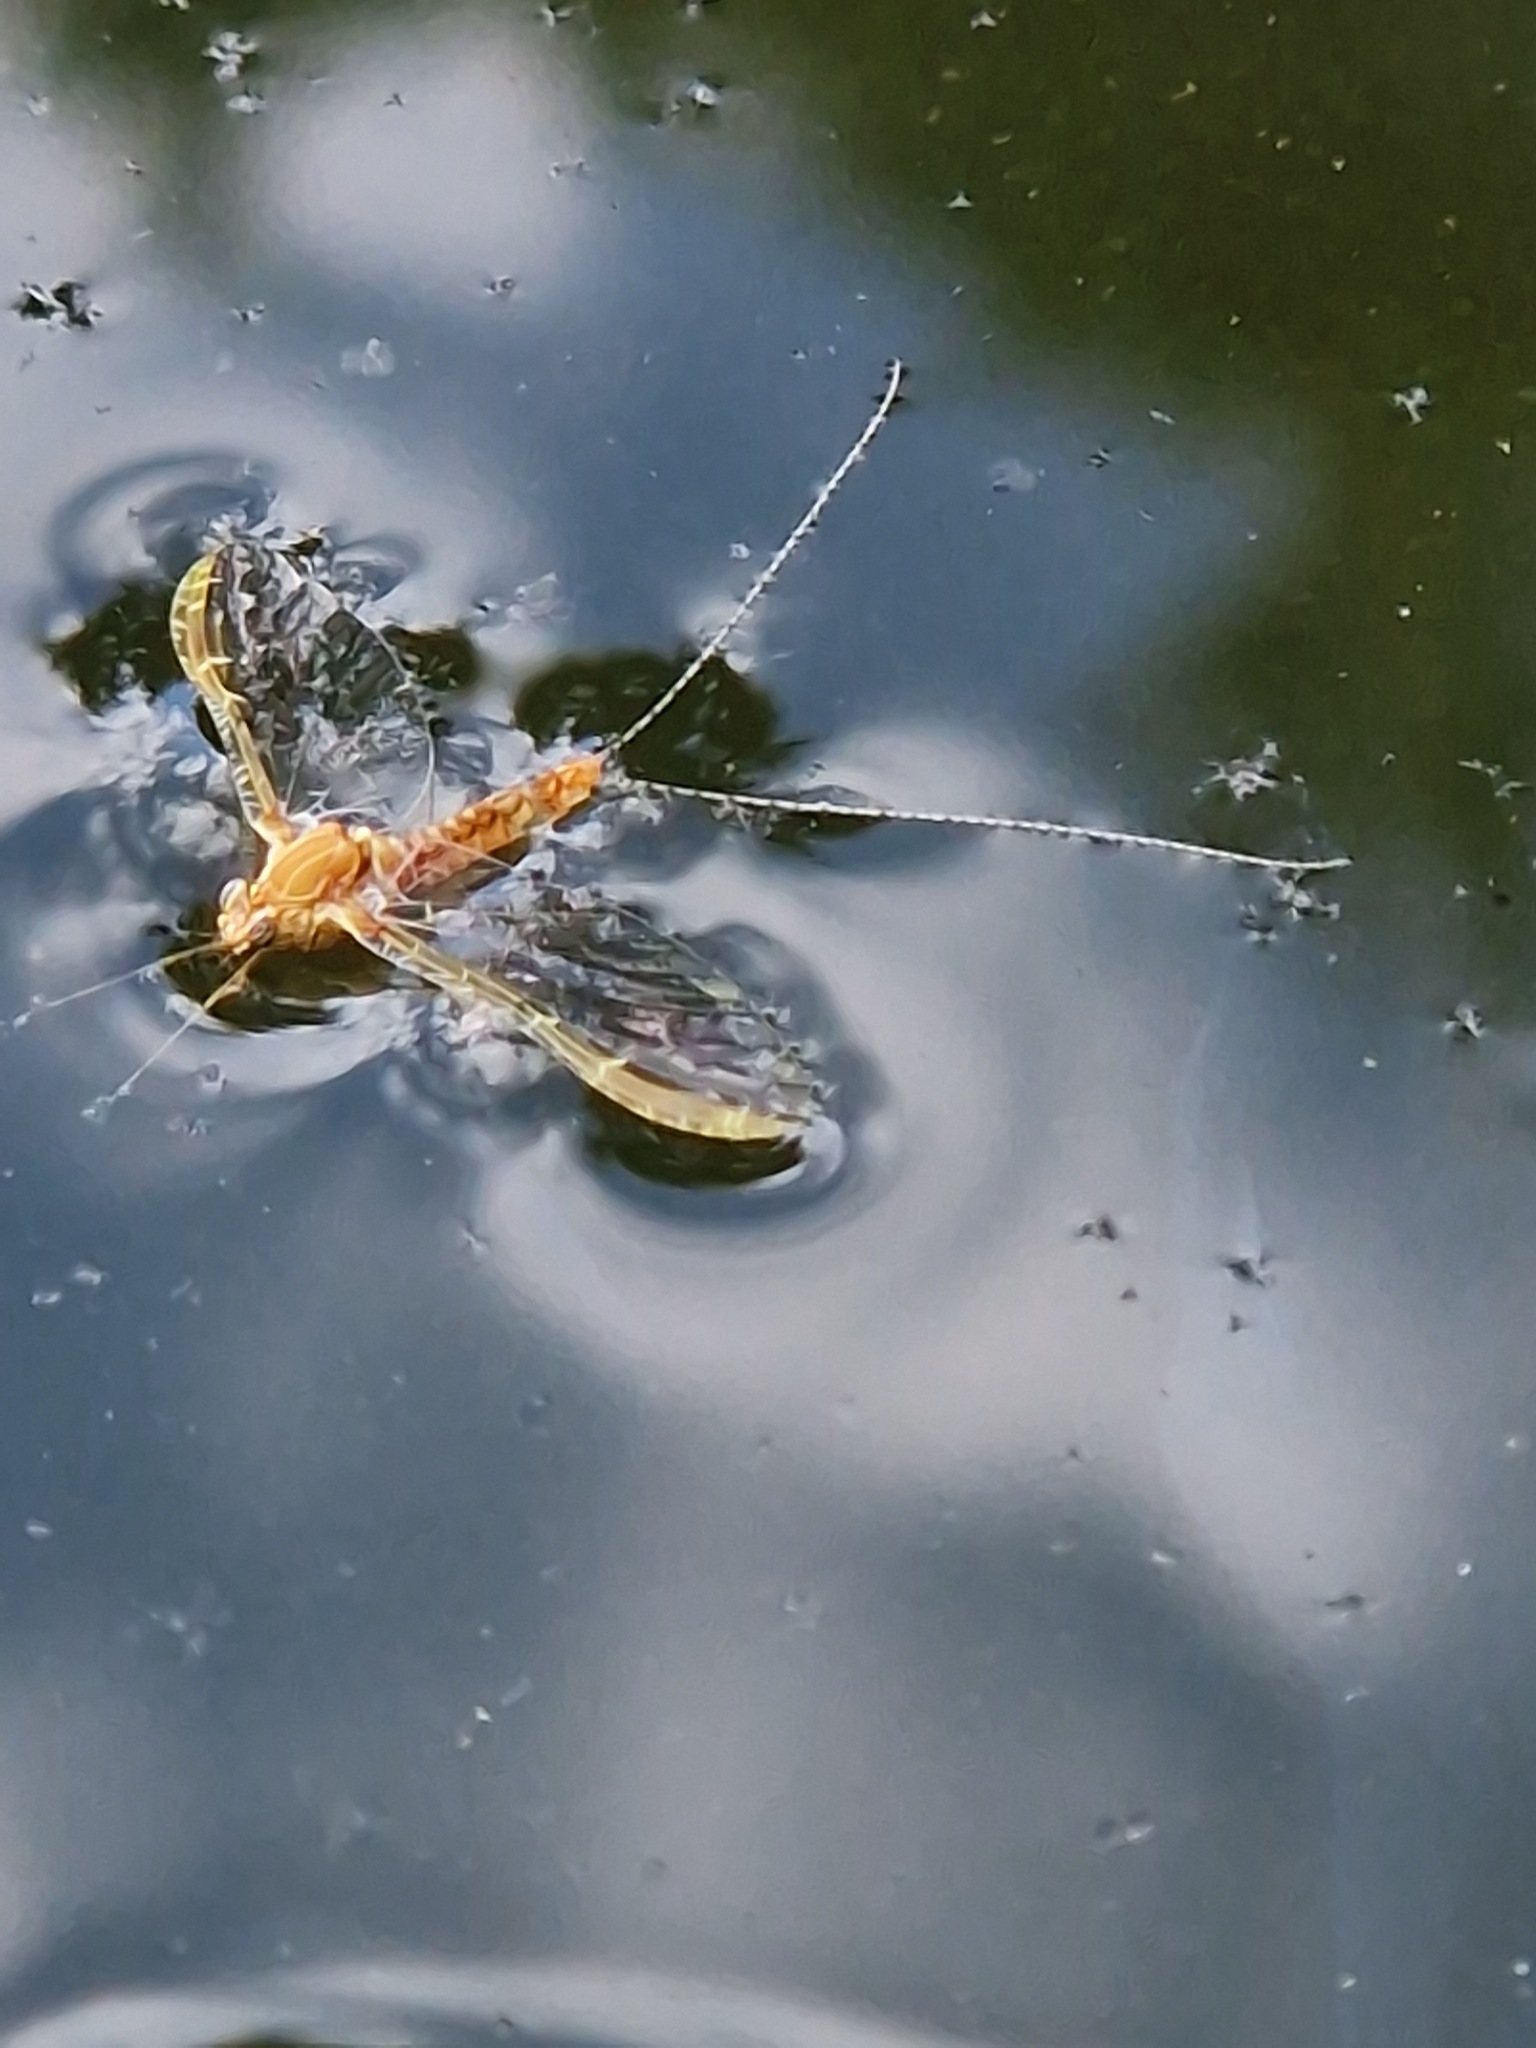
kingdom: Animalia
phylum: Arthropoda
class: Insecta
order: Ephemeroptera
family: Baetidae
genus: Cloeon
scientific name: Cloeon dipterum
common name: Pond olive
